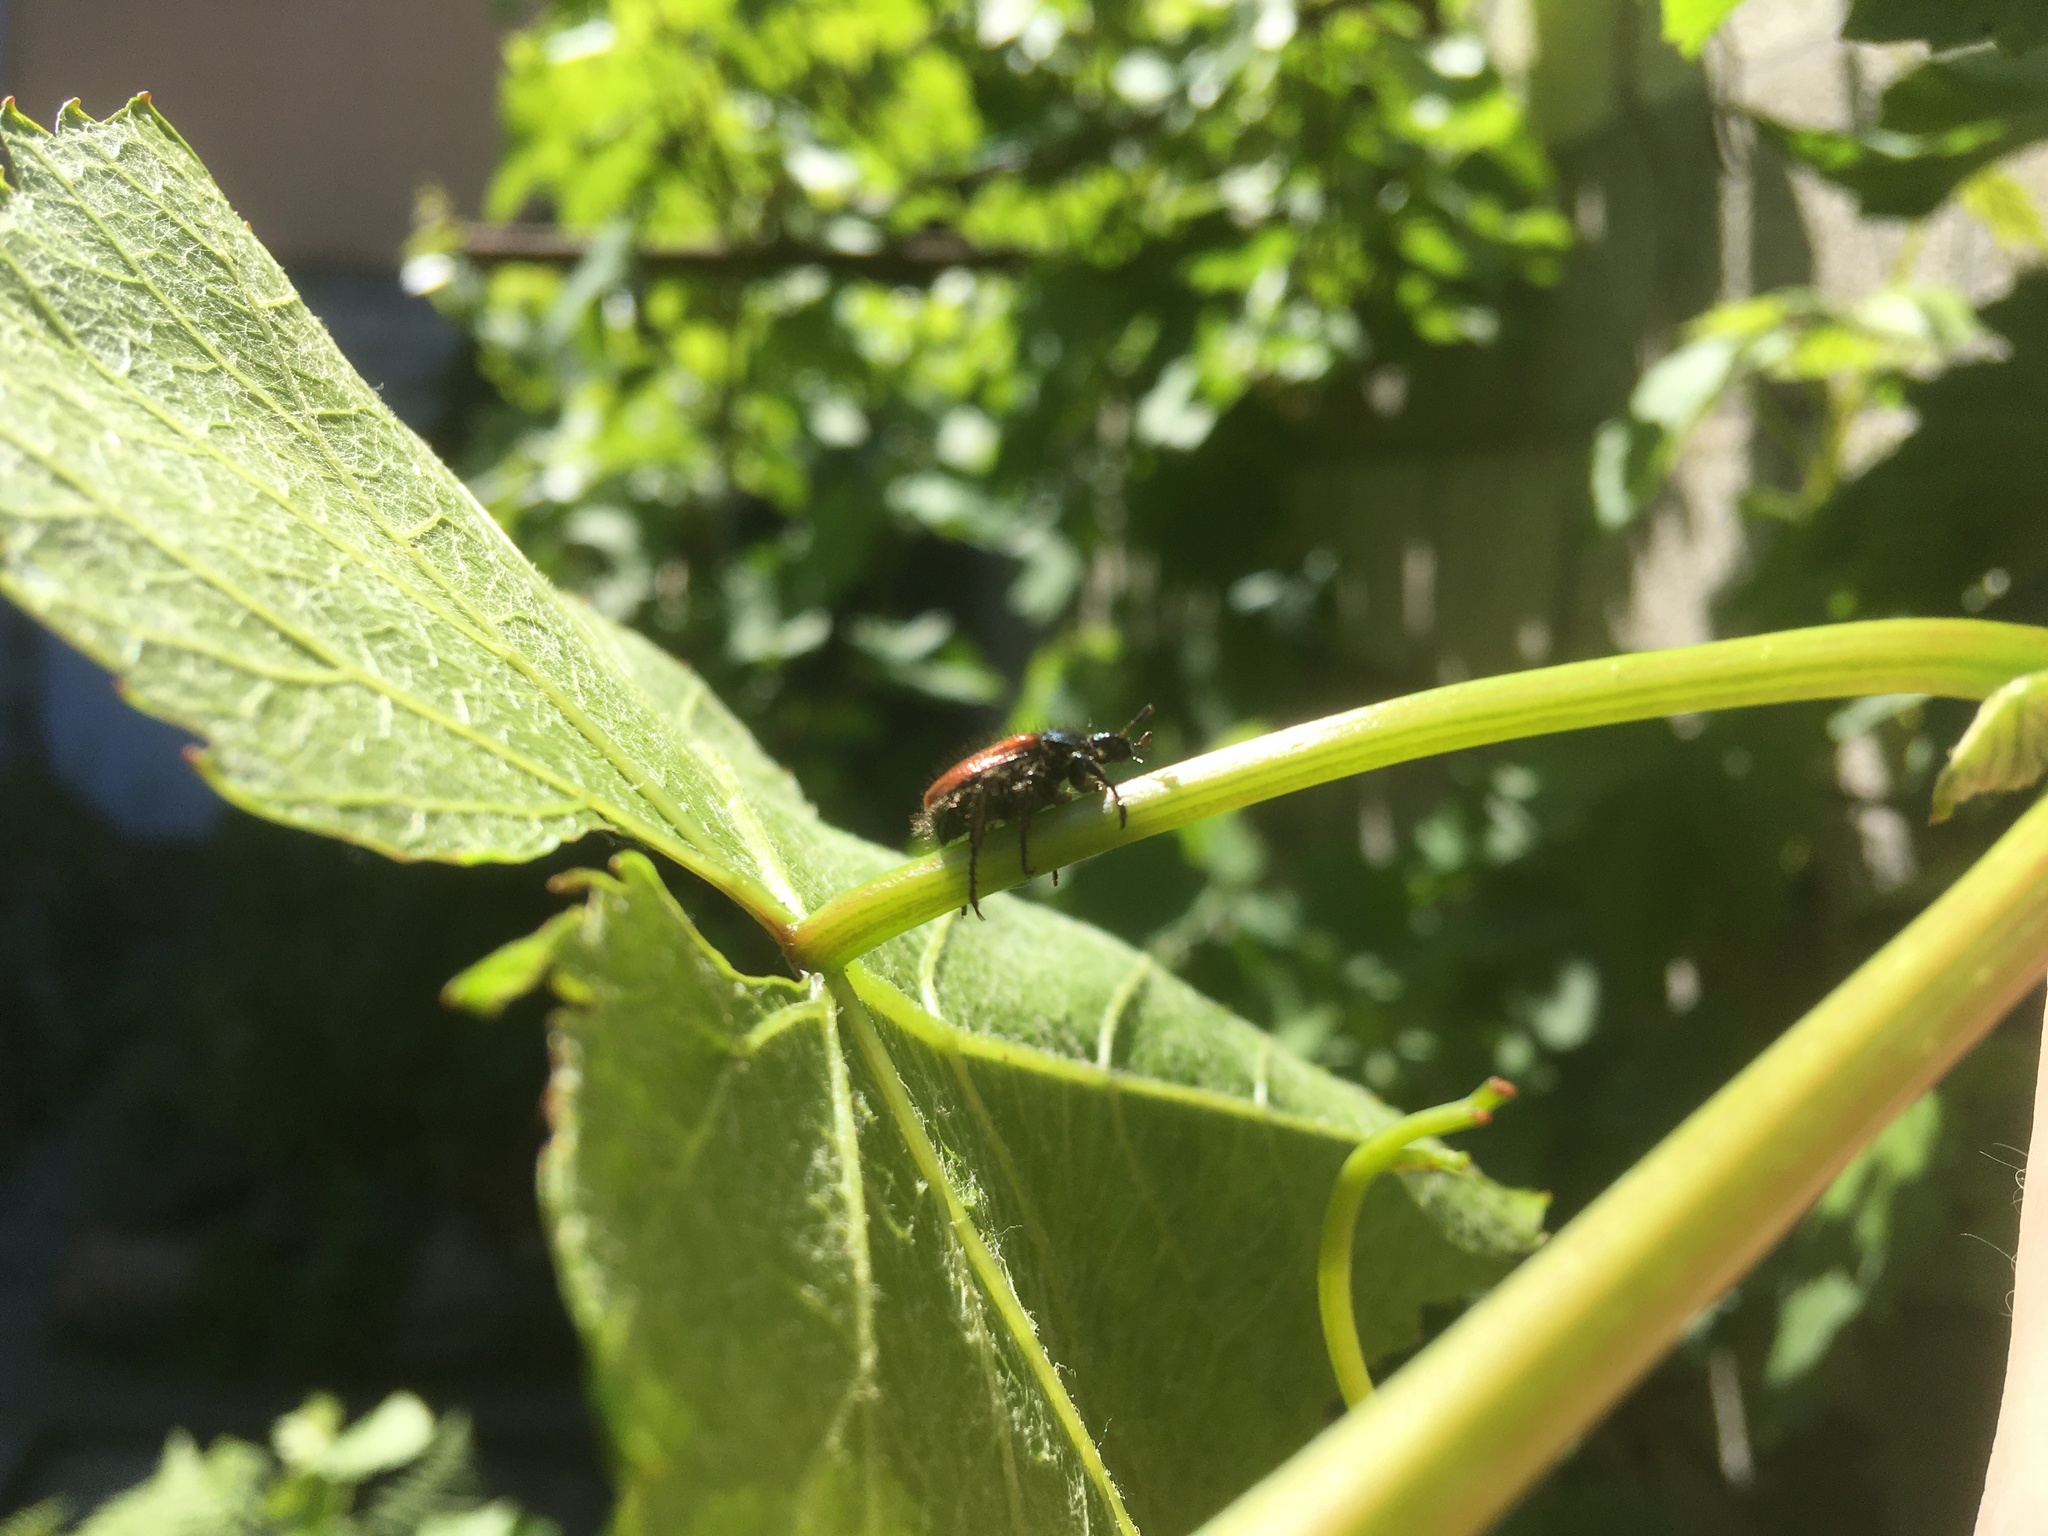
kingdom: Animalia
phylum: Arthropoda
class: Insecta
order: Coleoptera
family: Scarabaeidae
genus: Phyllopertha
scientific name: Phyllopertha horticola
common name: Garden chafer
